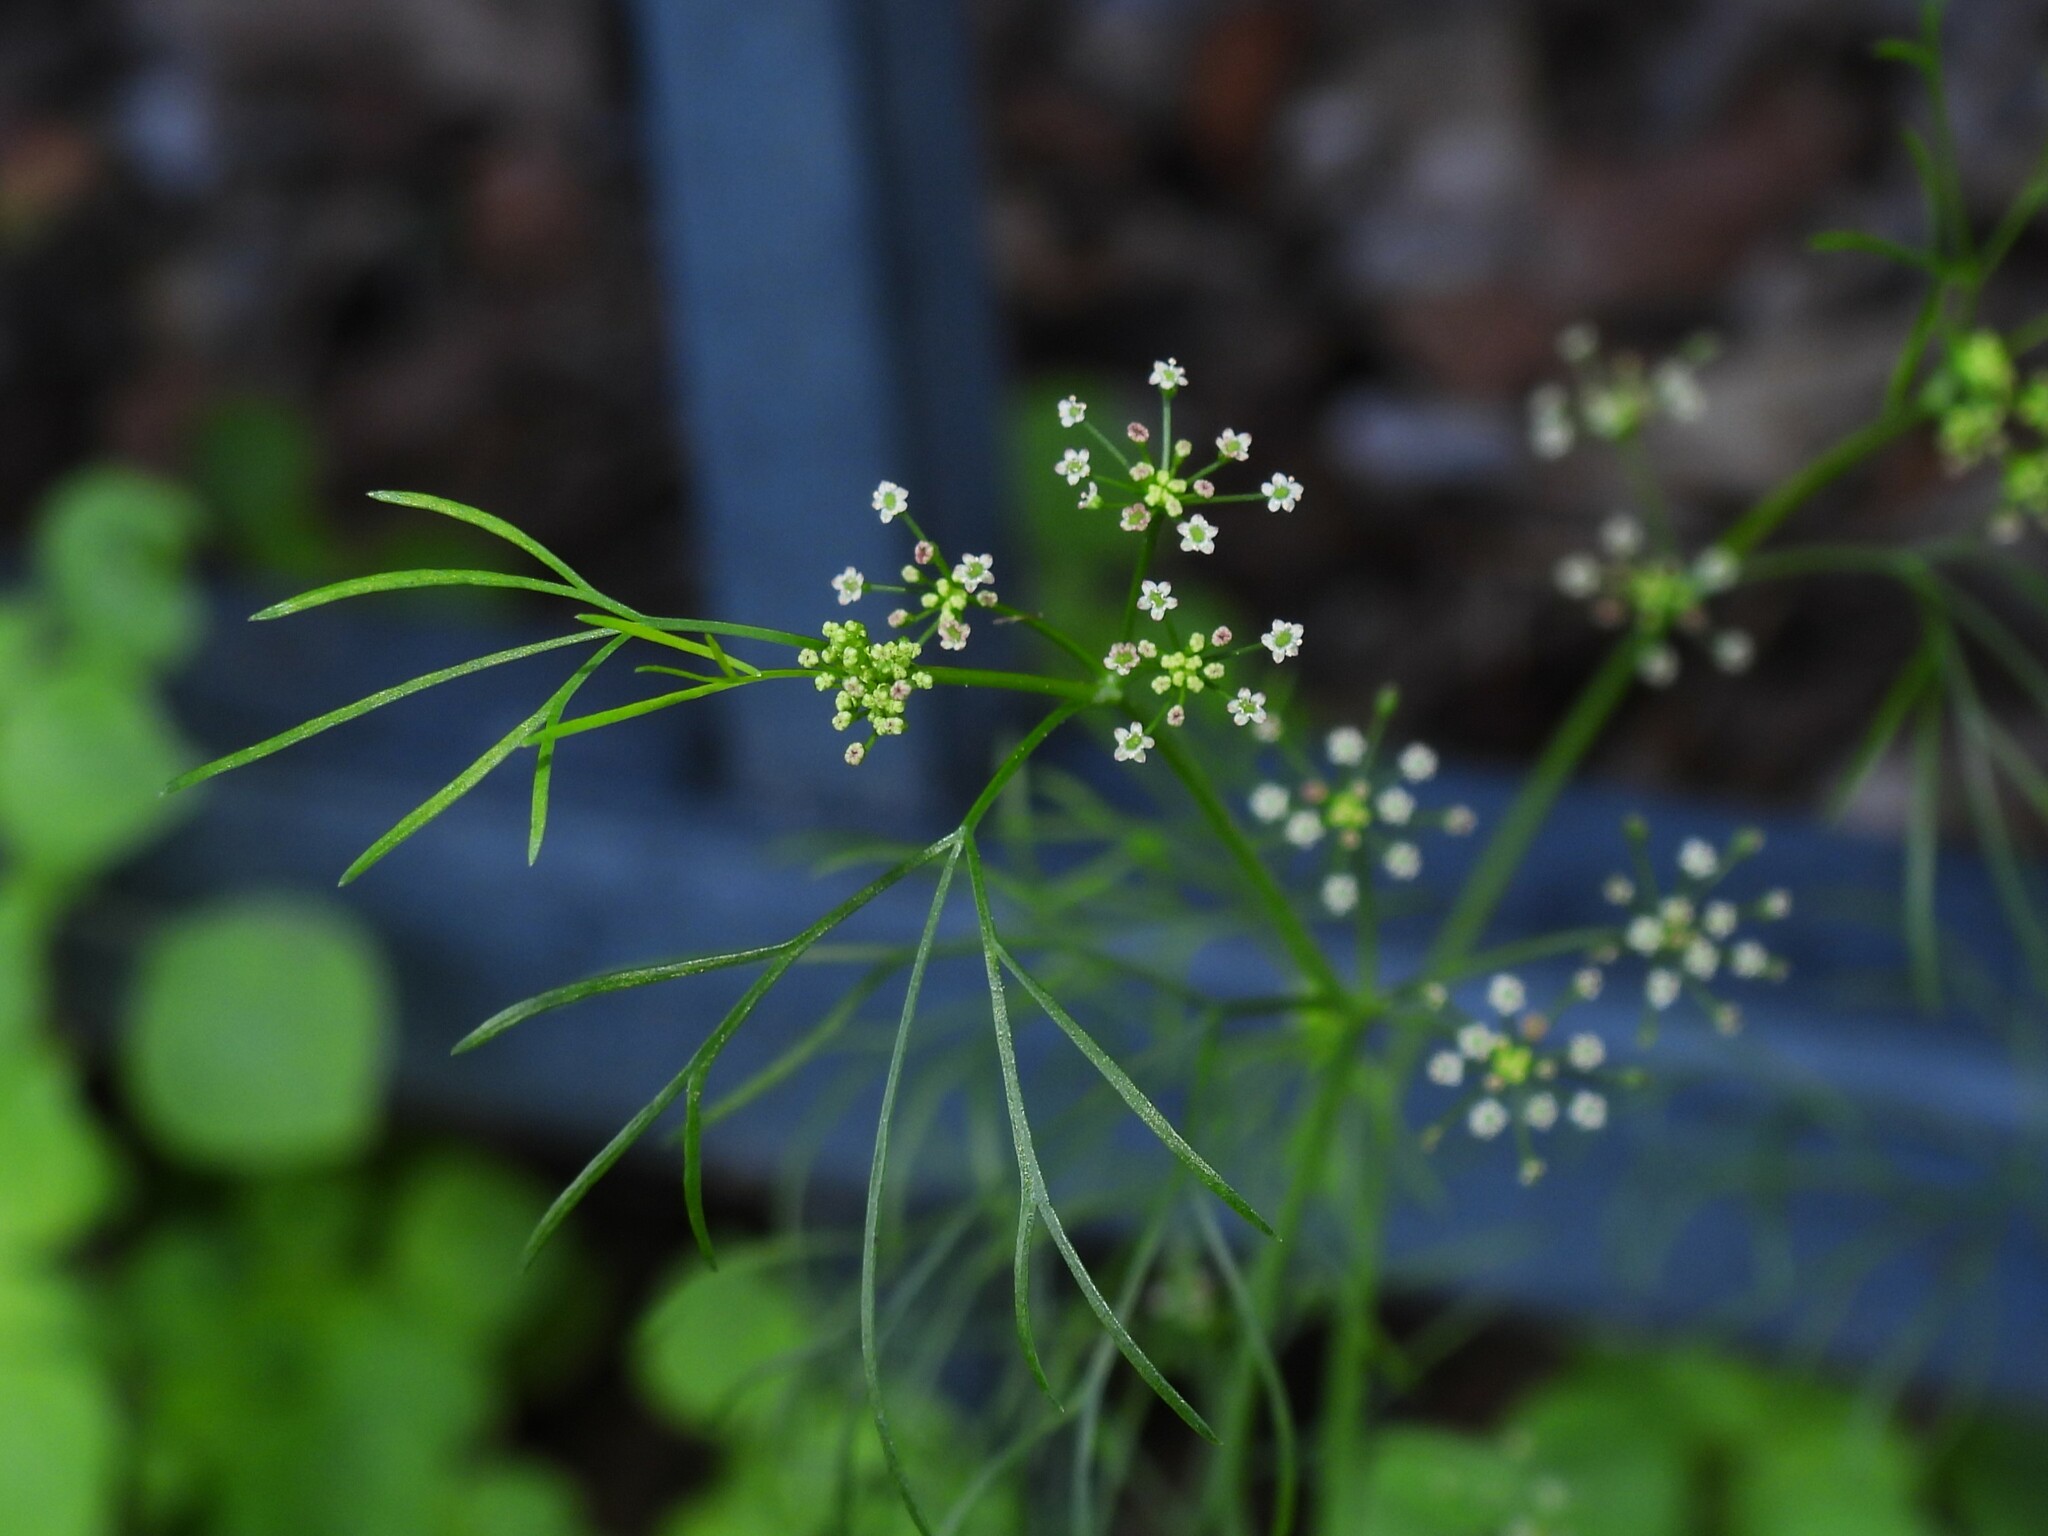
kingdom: Plantae
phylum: Tracheophyta
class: Magnoliopsida
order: Apiales
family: Apiaceae
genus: Ptilimnium
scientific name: Ptilimnium capillaceum
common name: Herbwilliam
